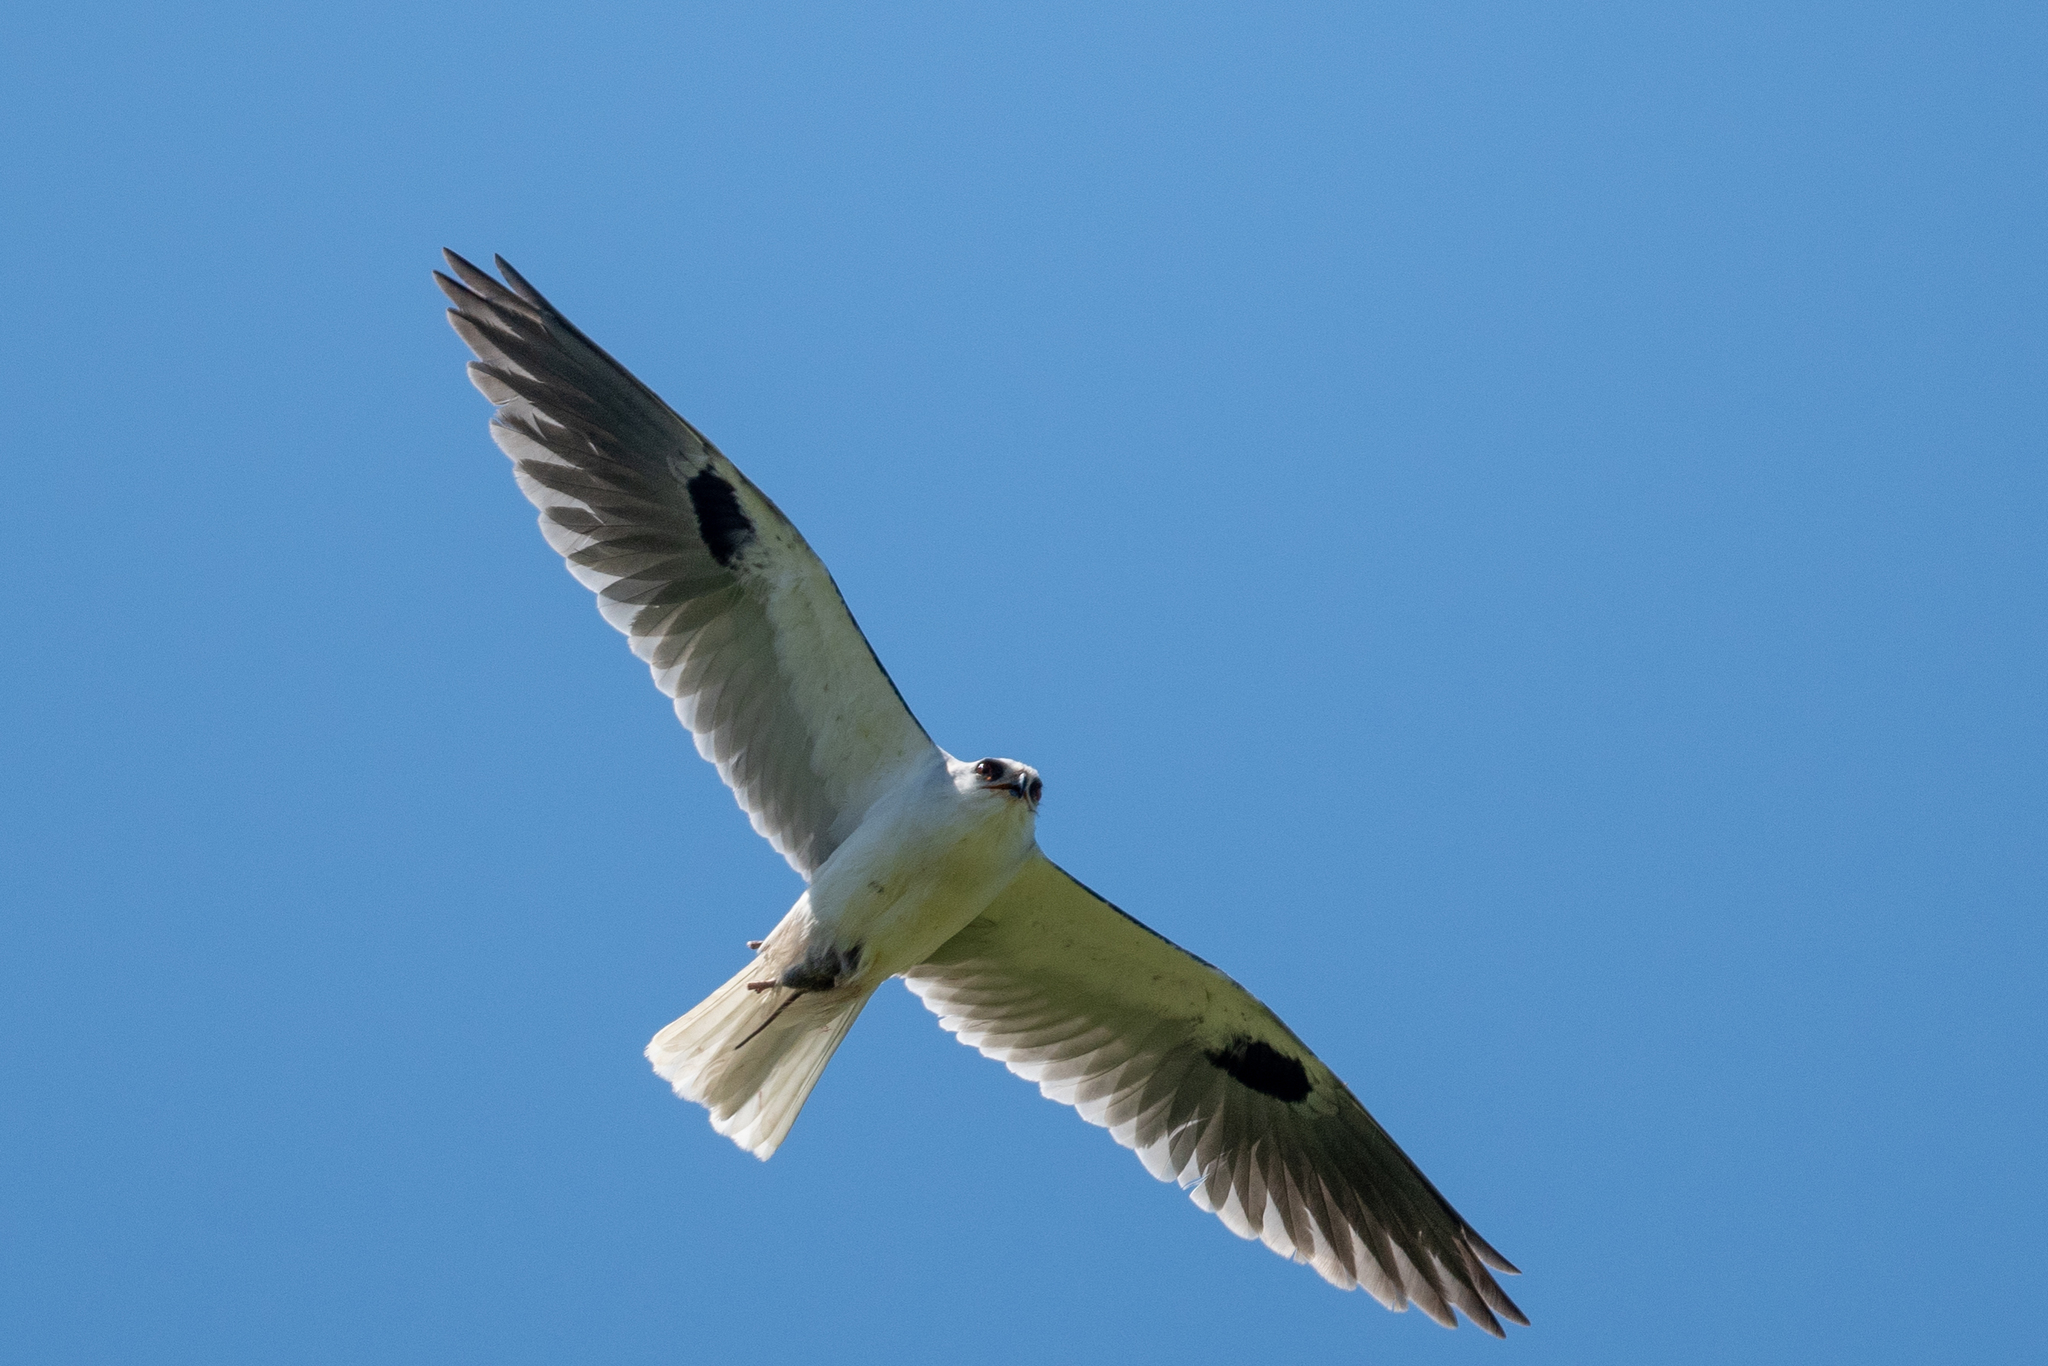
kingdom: Animalia
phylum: Chordata
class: Aves
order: Accipitriformes
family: Accipitridae
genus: Elanus
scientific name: Elanus leucurus
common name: White-tailed kite
